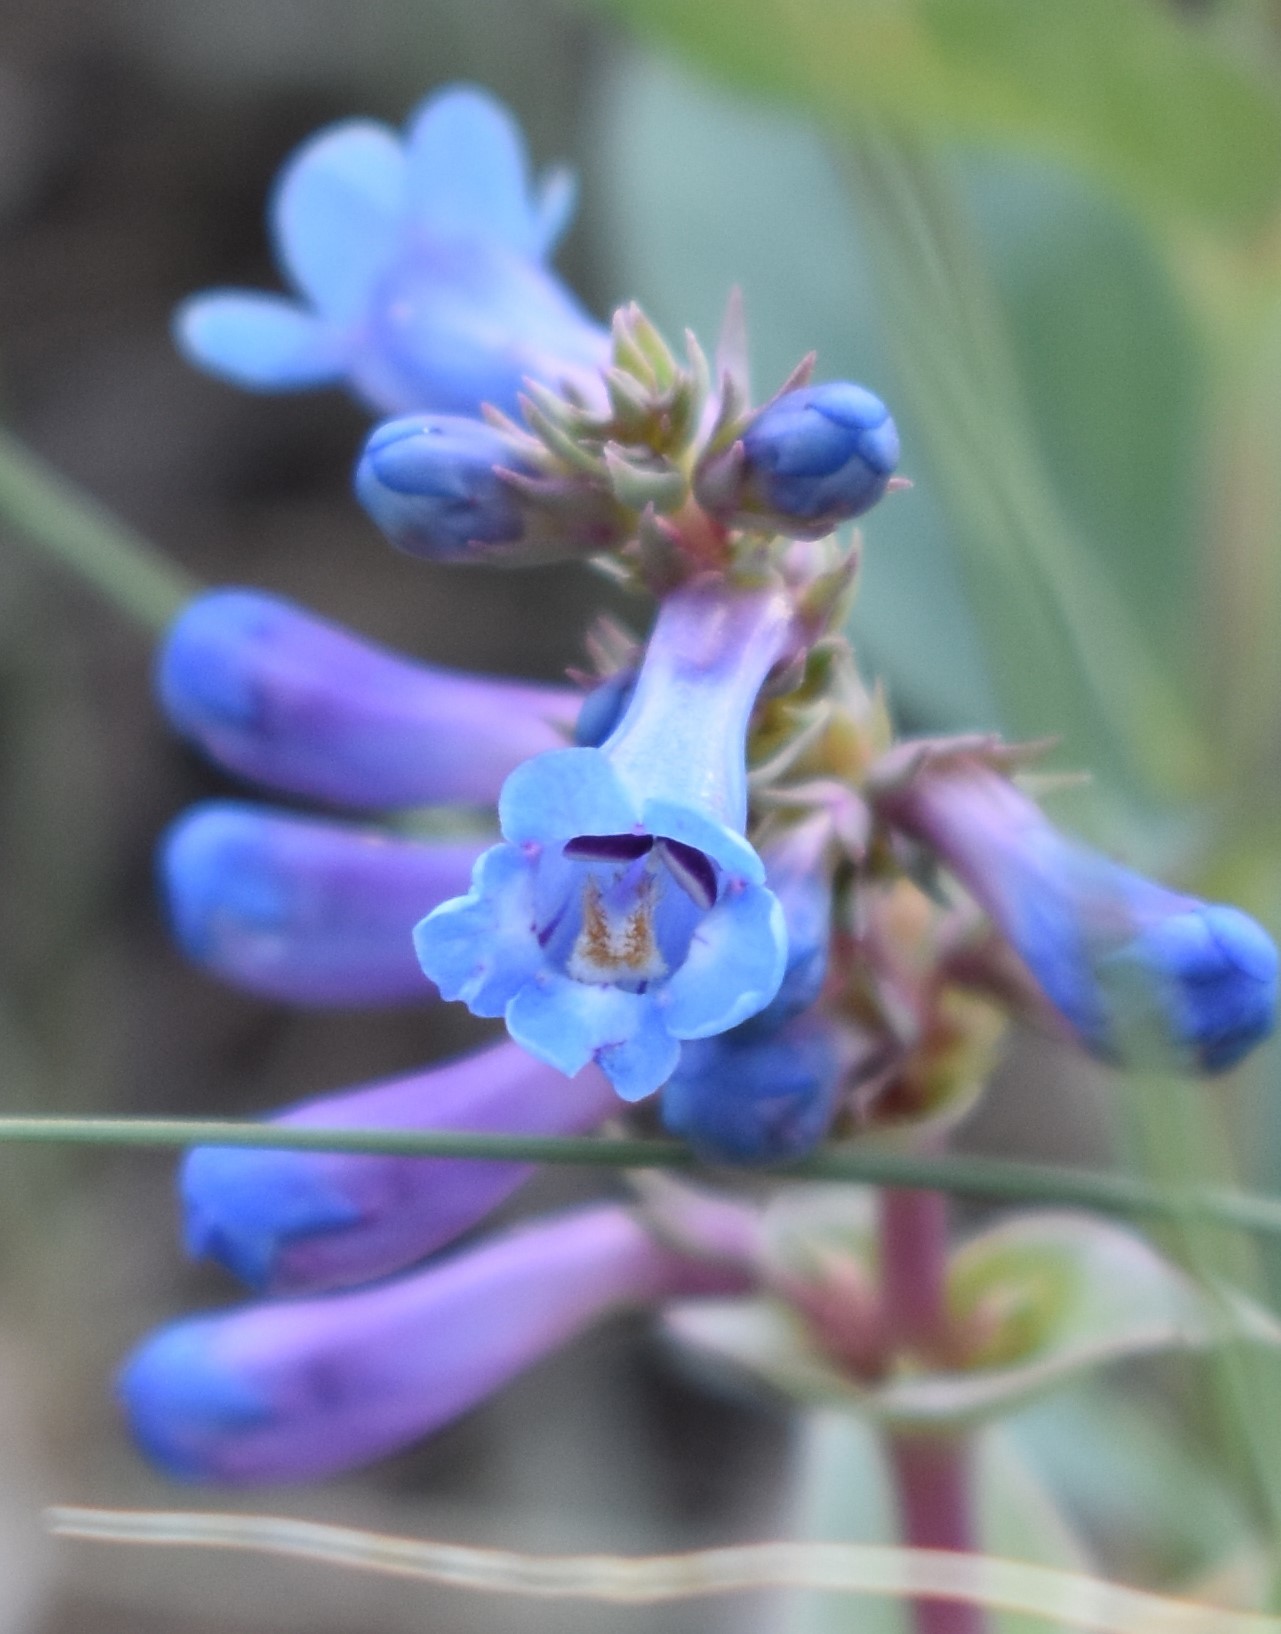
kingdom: Plantae
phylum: Tracheophyta
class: Magnoliopsida
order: Lamiales
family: Plantaginaceae
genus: Penstemon
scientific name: Penstemon nitidus
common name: Shining penstemon
